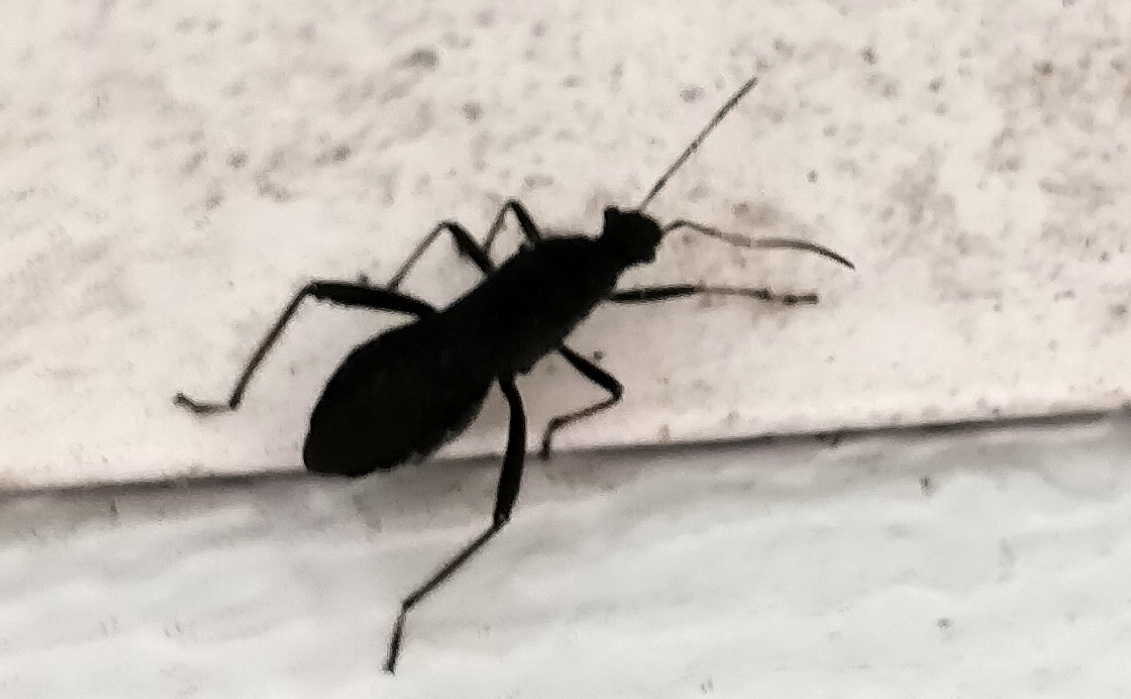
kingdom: Animalia
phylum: Arthropoda
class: Insecta
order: Hemiptera
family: Alydidae
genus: Alydus
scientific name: Alydus eurinus
